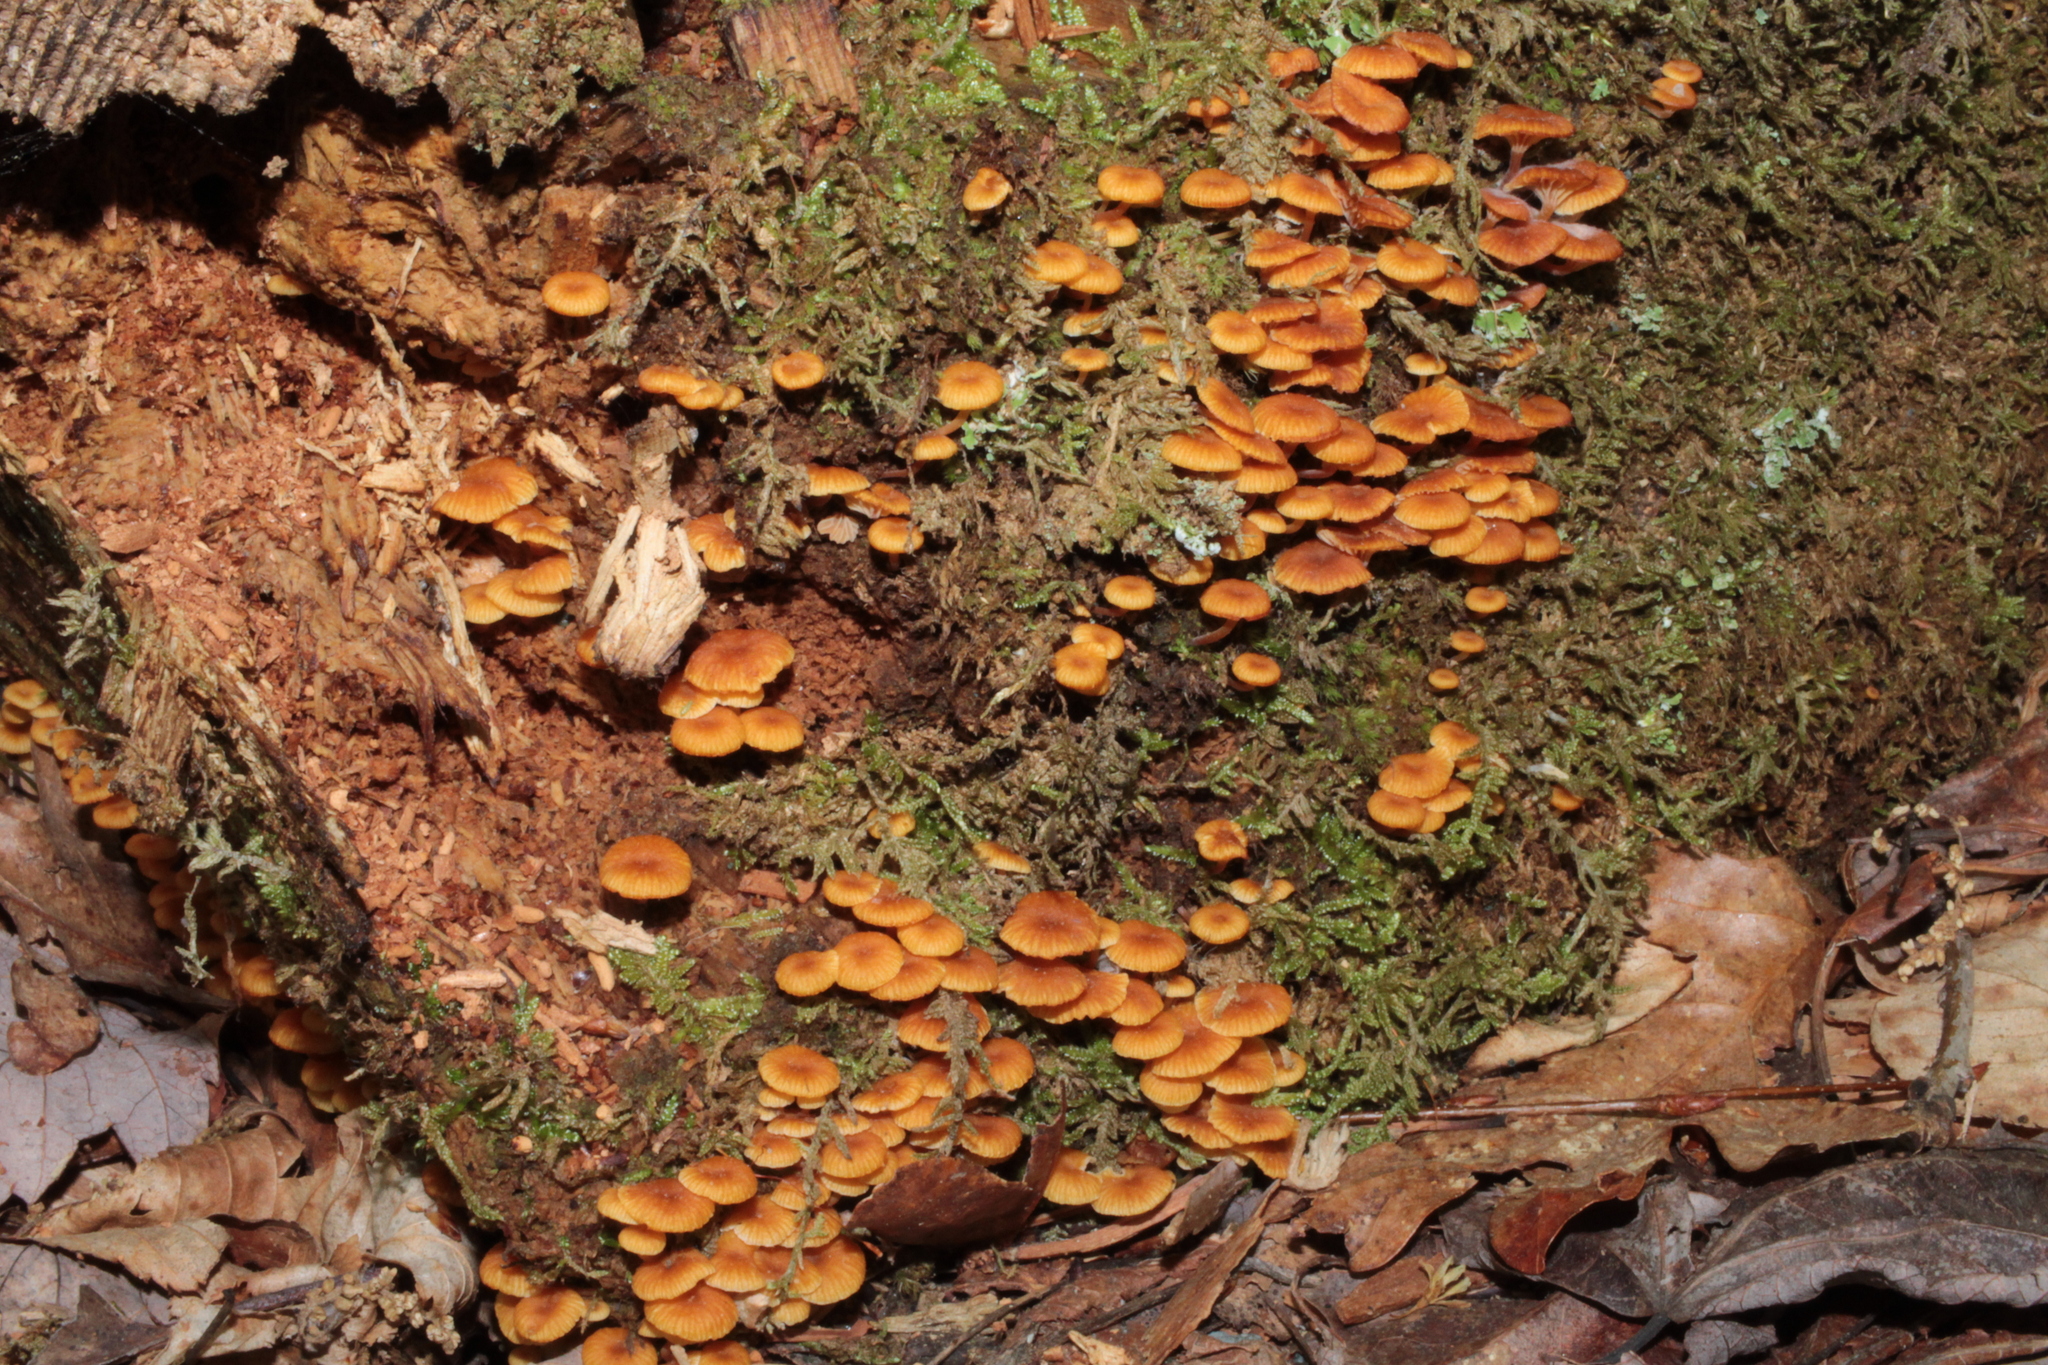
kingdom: Fungi
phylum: Basidiomycota
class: Agaricomycetes
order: Agaricales
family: Mycenaceae
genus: Xeromphalina
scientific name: Xeromphalina campanella
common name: Pinewood gingertail
